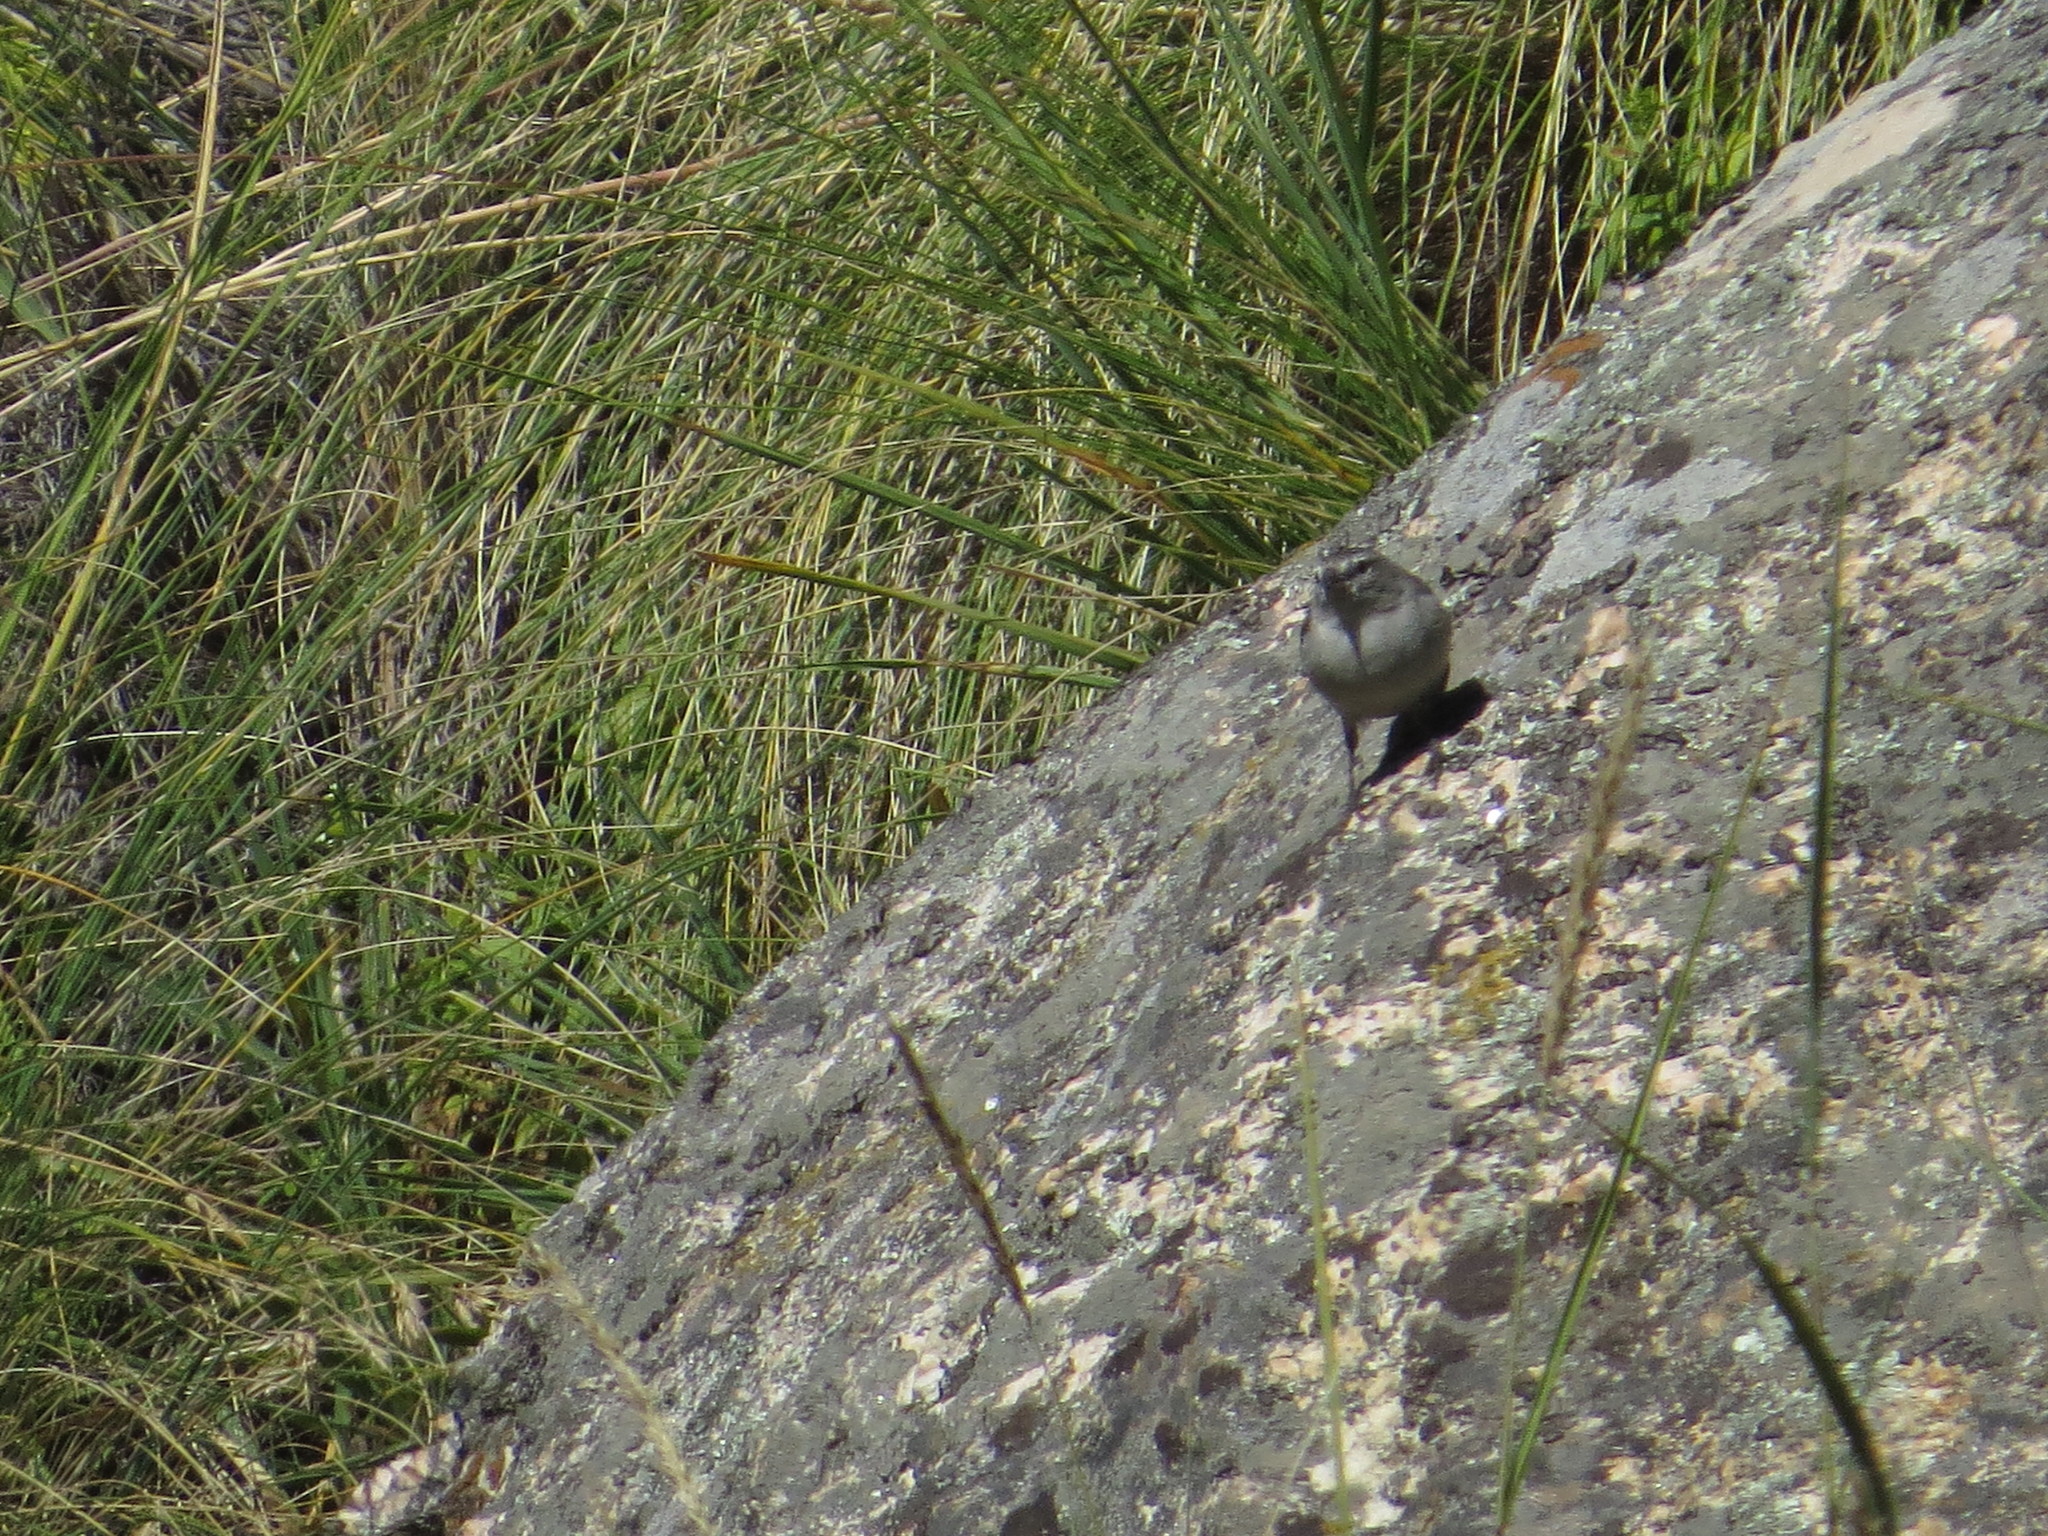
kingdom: Animalia
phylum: Chordata
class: Aves
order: Passeriformes
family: Thraupidae
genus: Geospizopsis
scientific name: Geospizopsis plebejus
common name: Ash-breasted sierra-finch
